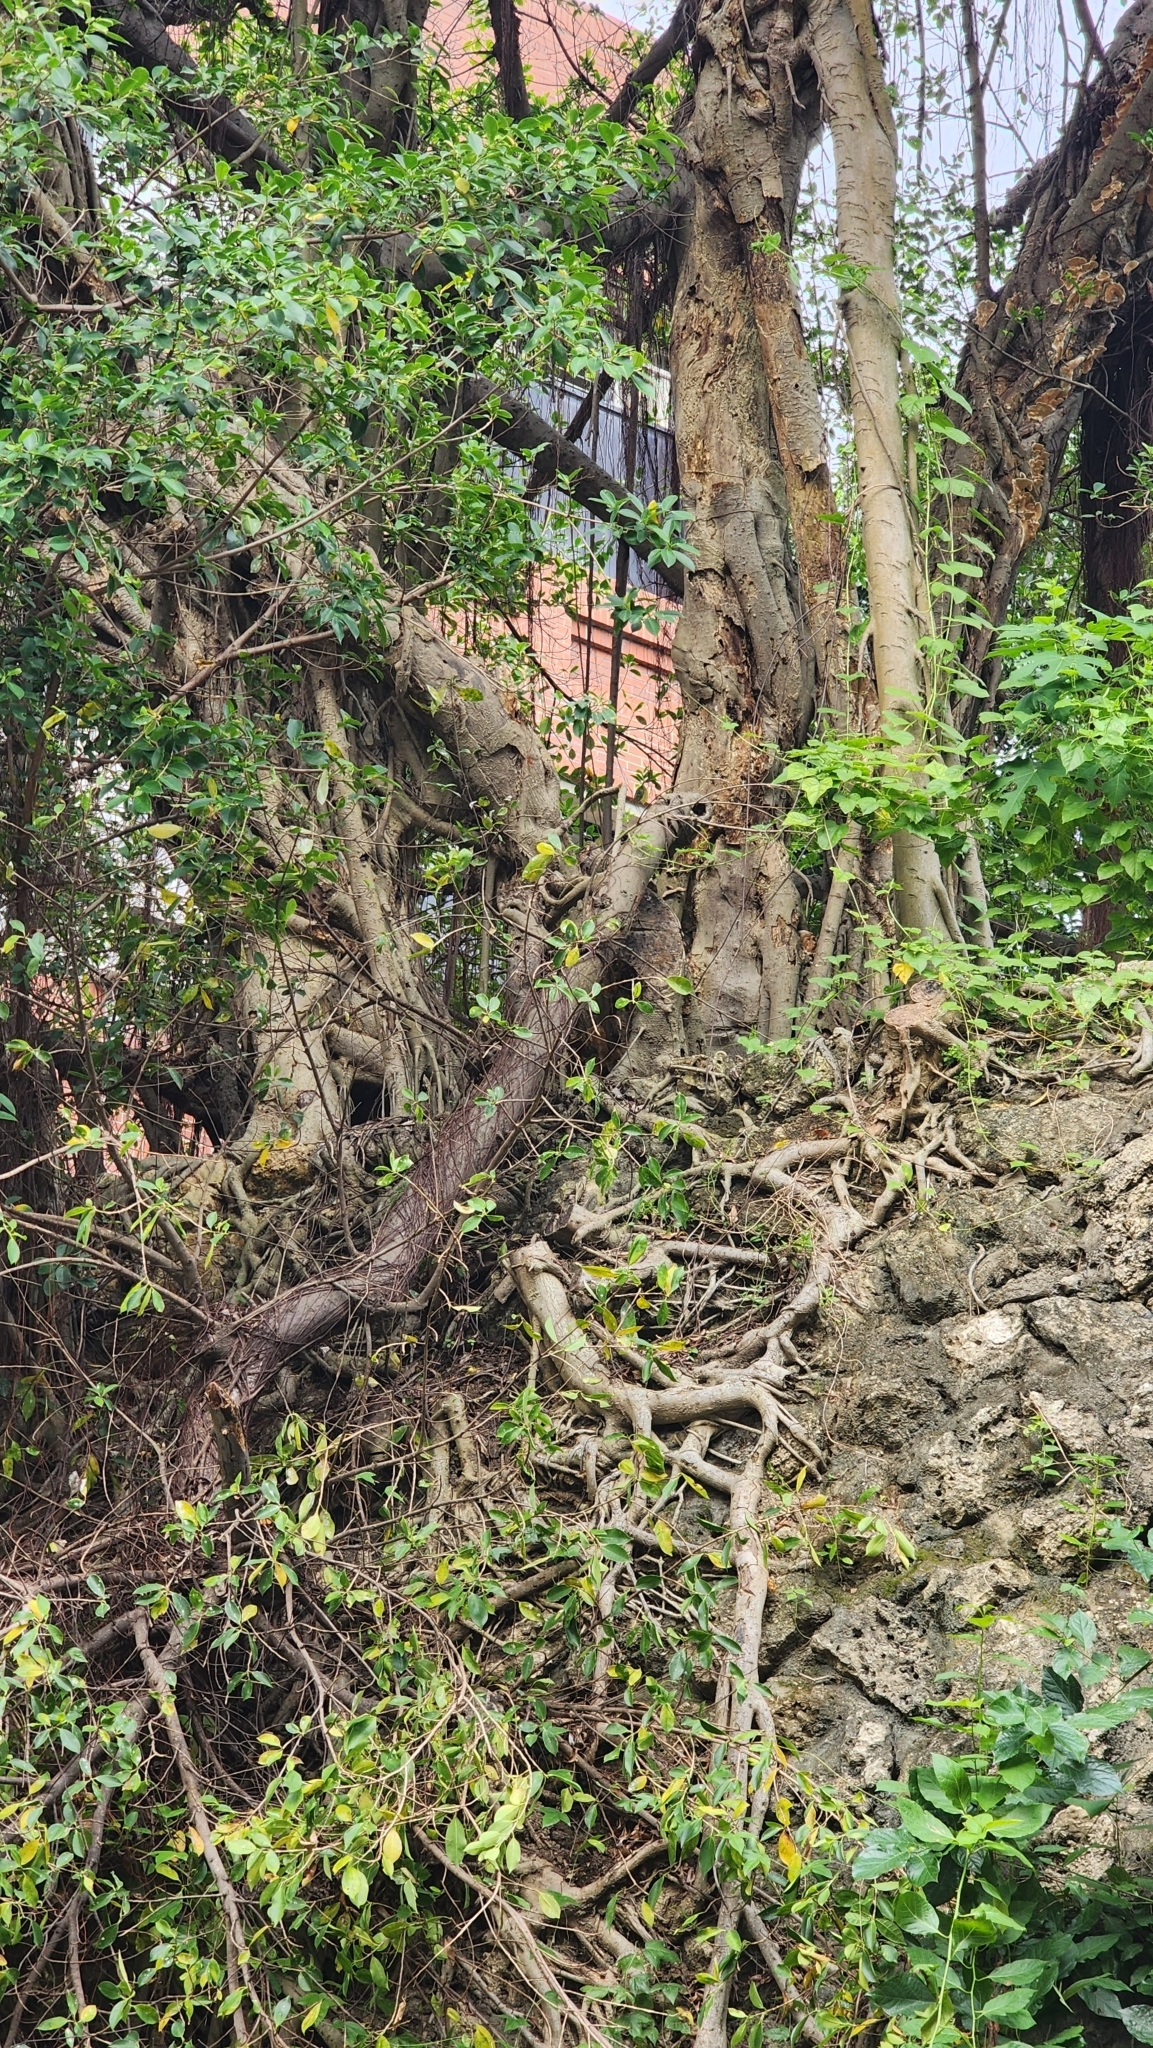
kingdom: Plantae
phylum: Tracheophyta
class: Magnoliopsida
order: Rosales
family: Moraceae
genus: Ficus
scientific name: Ficus microcarpa
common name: Chinese banyan
